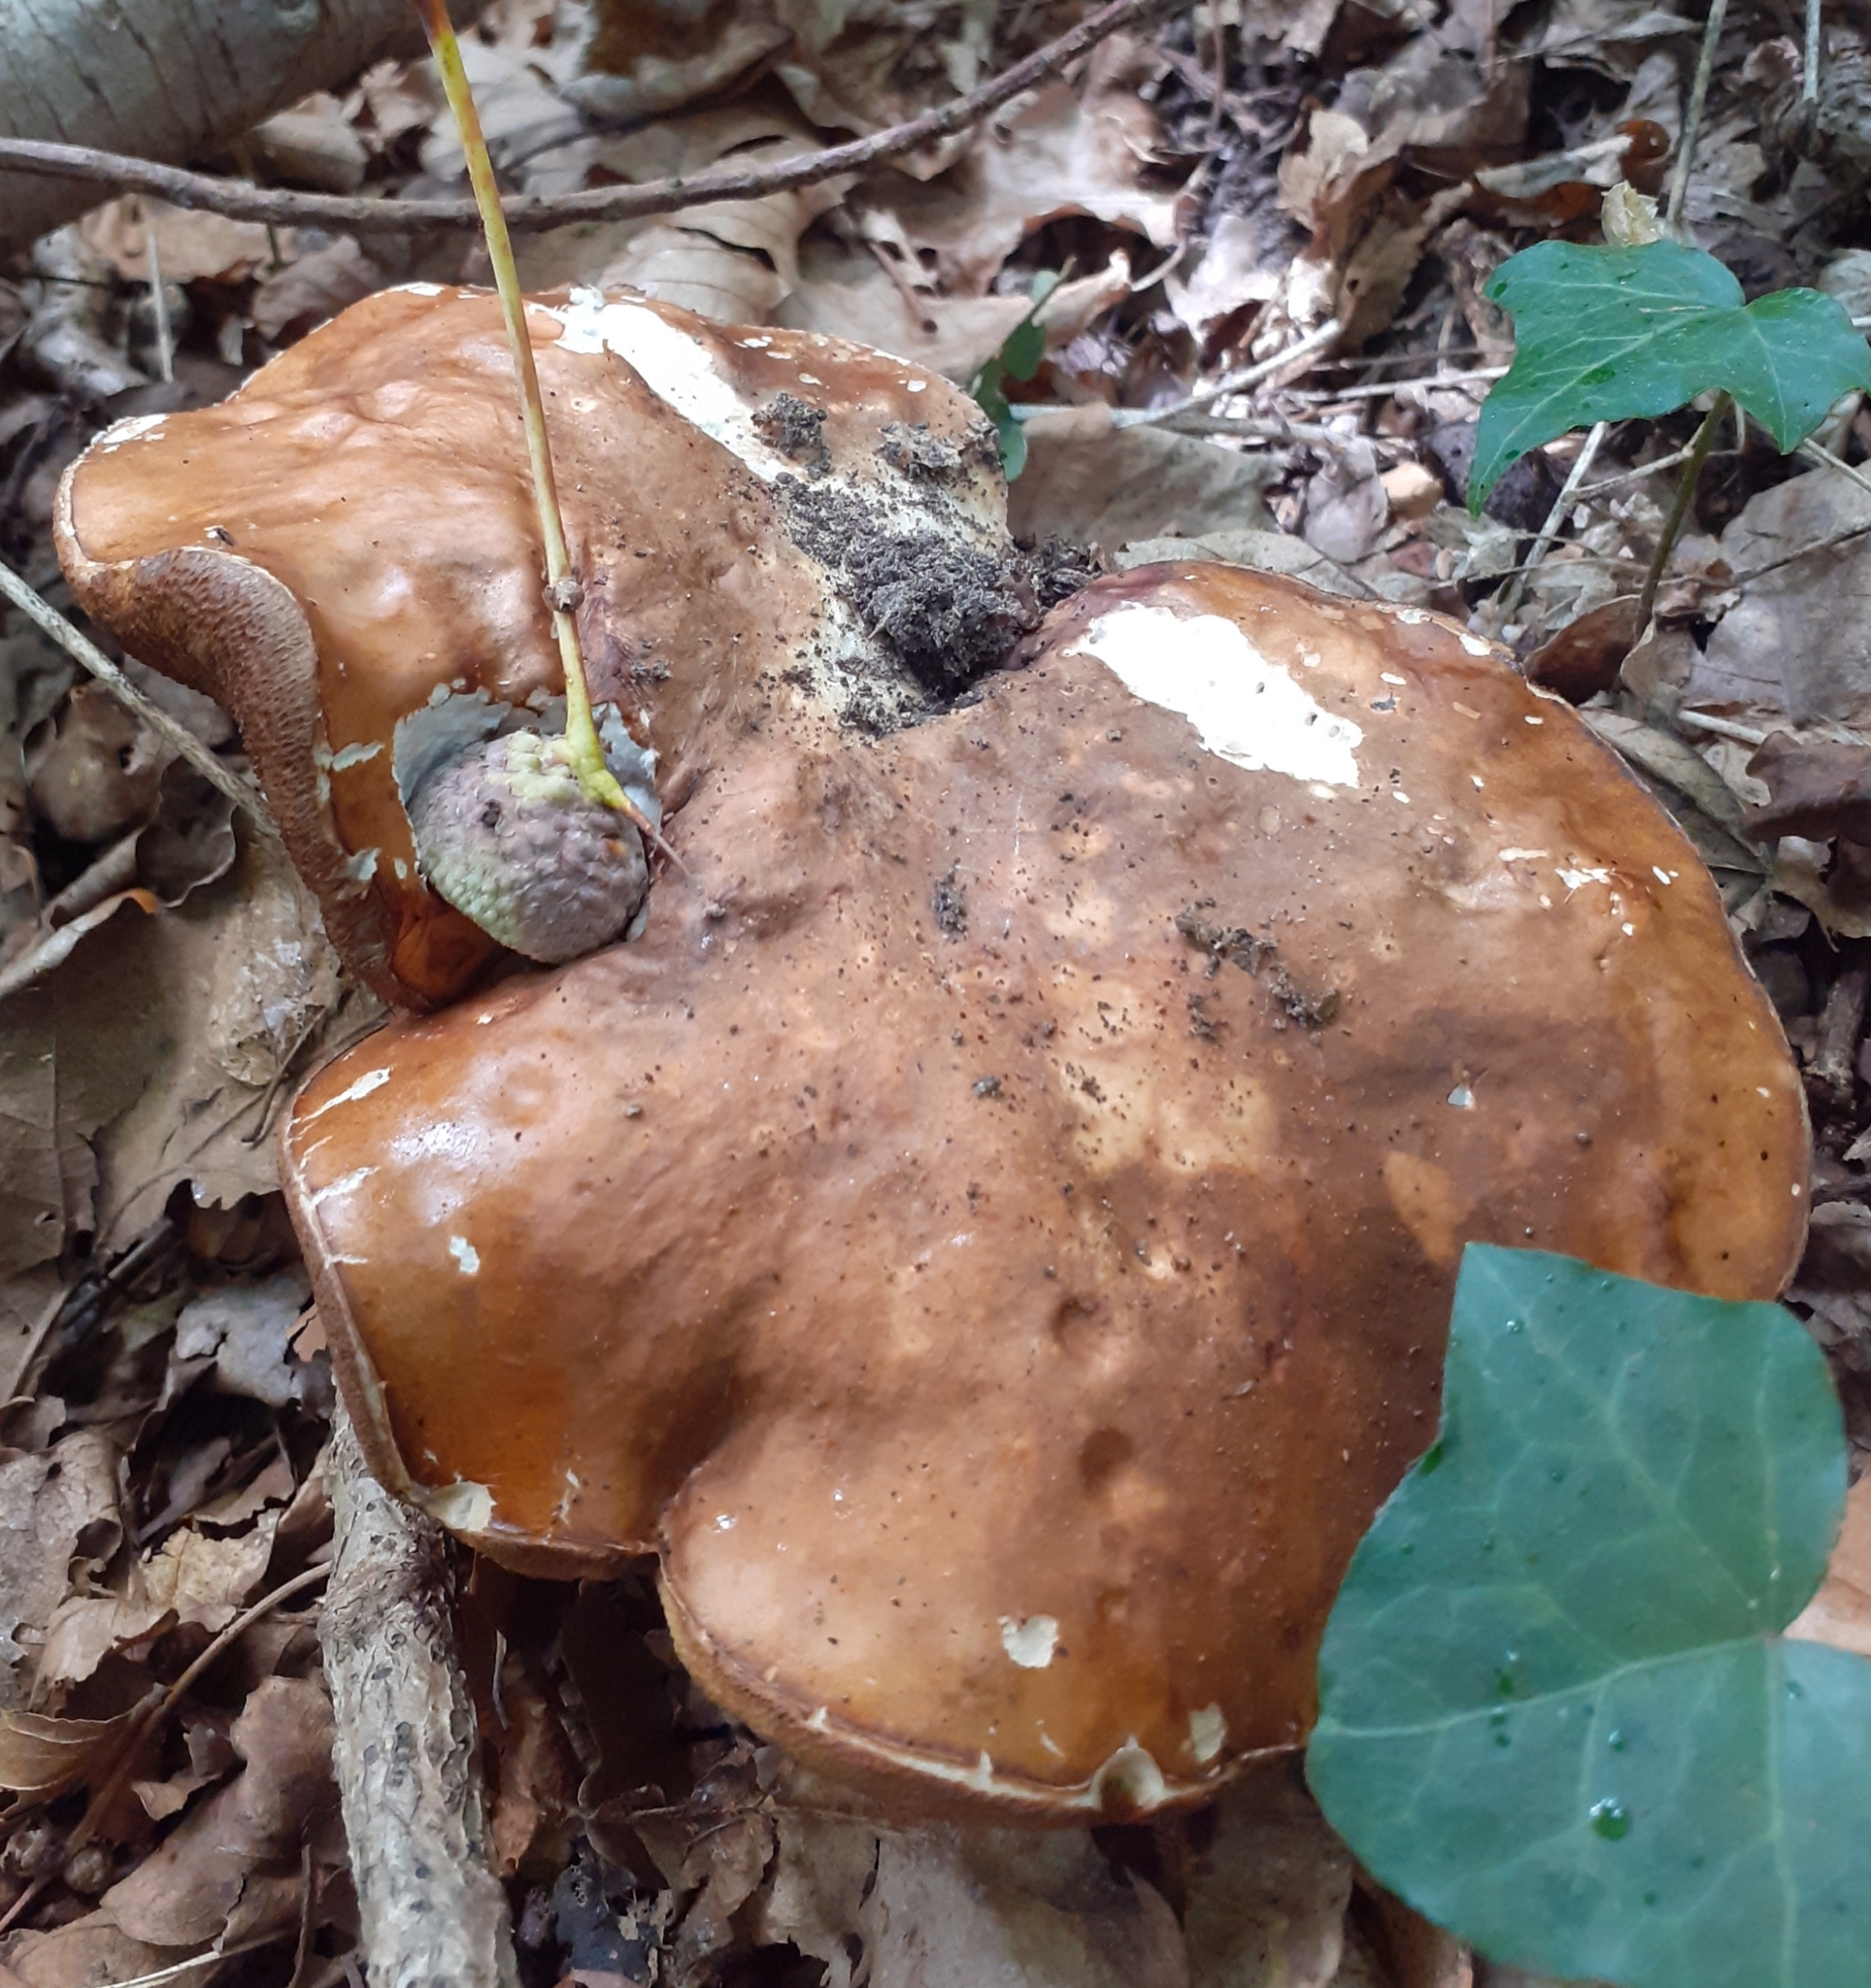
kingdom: Fungi
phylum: Basidiomycota
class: Agaricomycetes
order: Boletales
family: Boletaceae
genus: Boletus
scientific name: Boletus reticulatus
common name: Summer bolete
